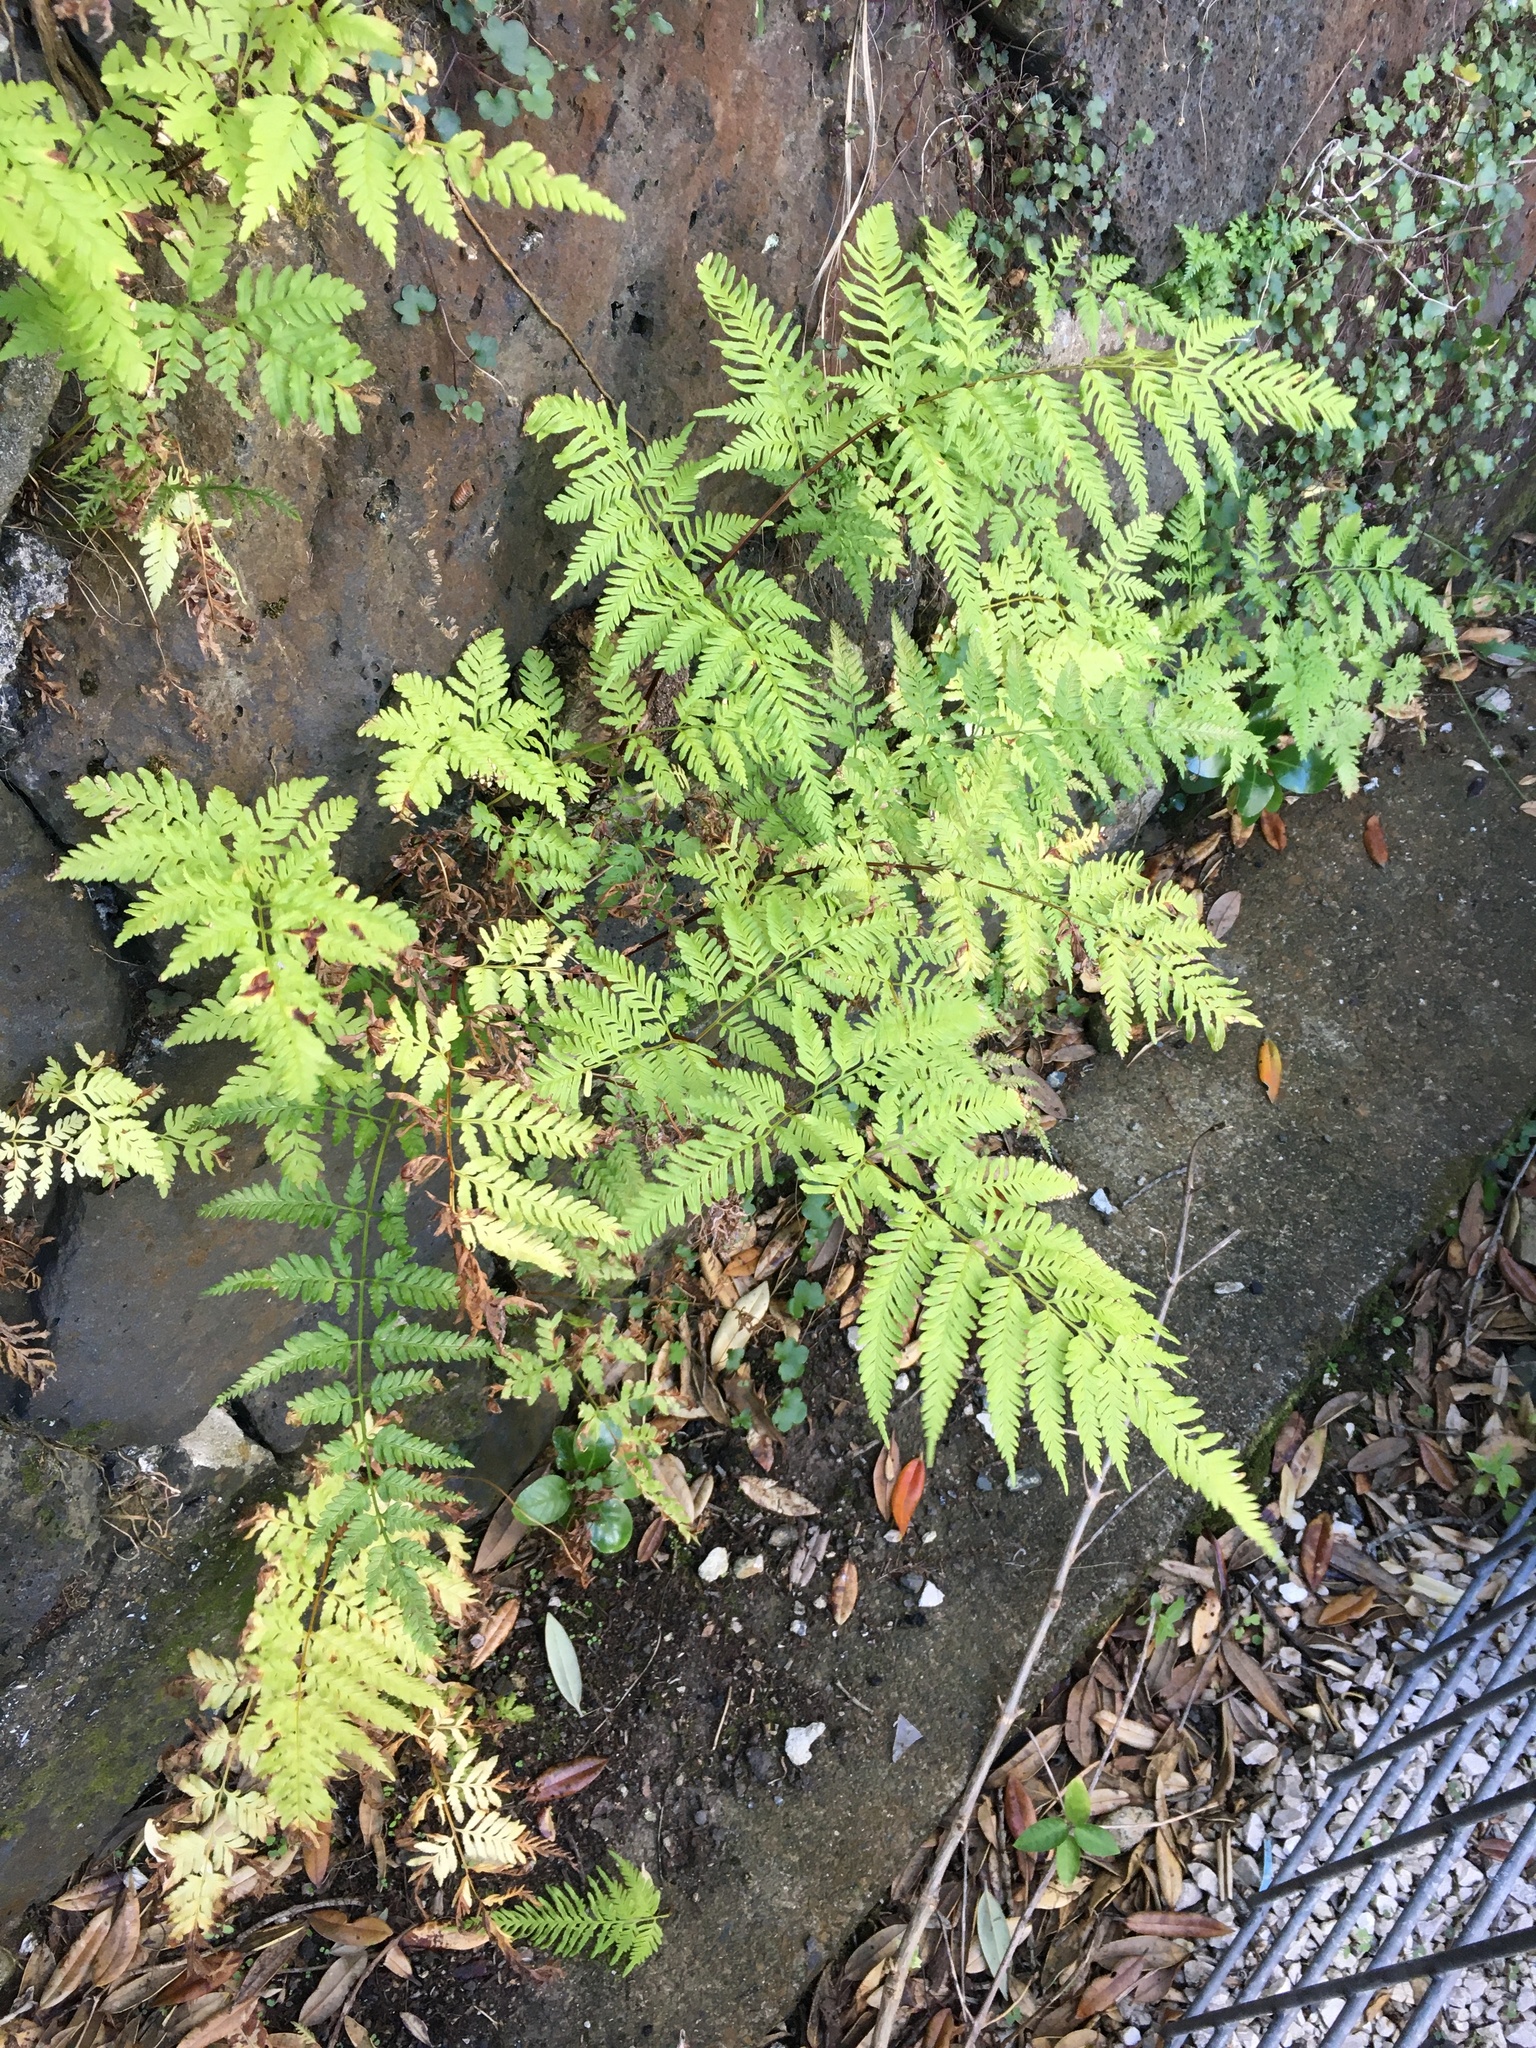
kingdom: Plantae
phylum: Tracheophyta
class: Polypodiopsida
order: Polypodiales
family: Pteridaceae
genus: Pteris
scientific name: Pteris tremula
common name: Australian brake
